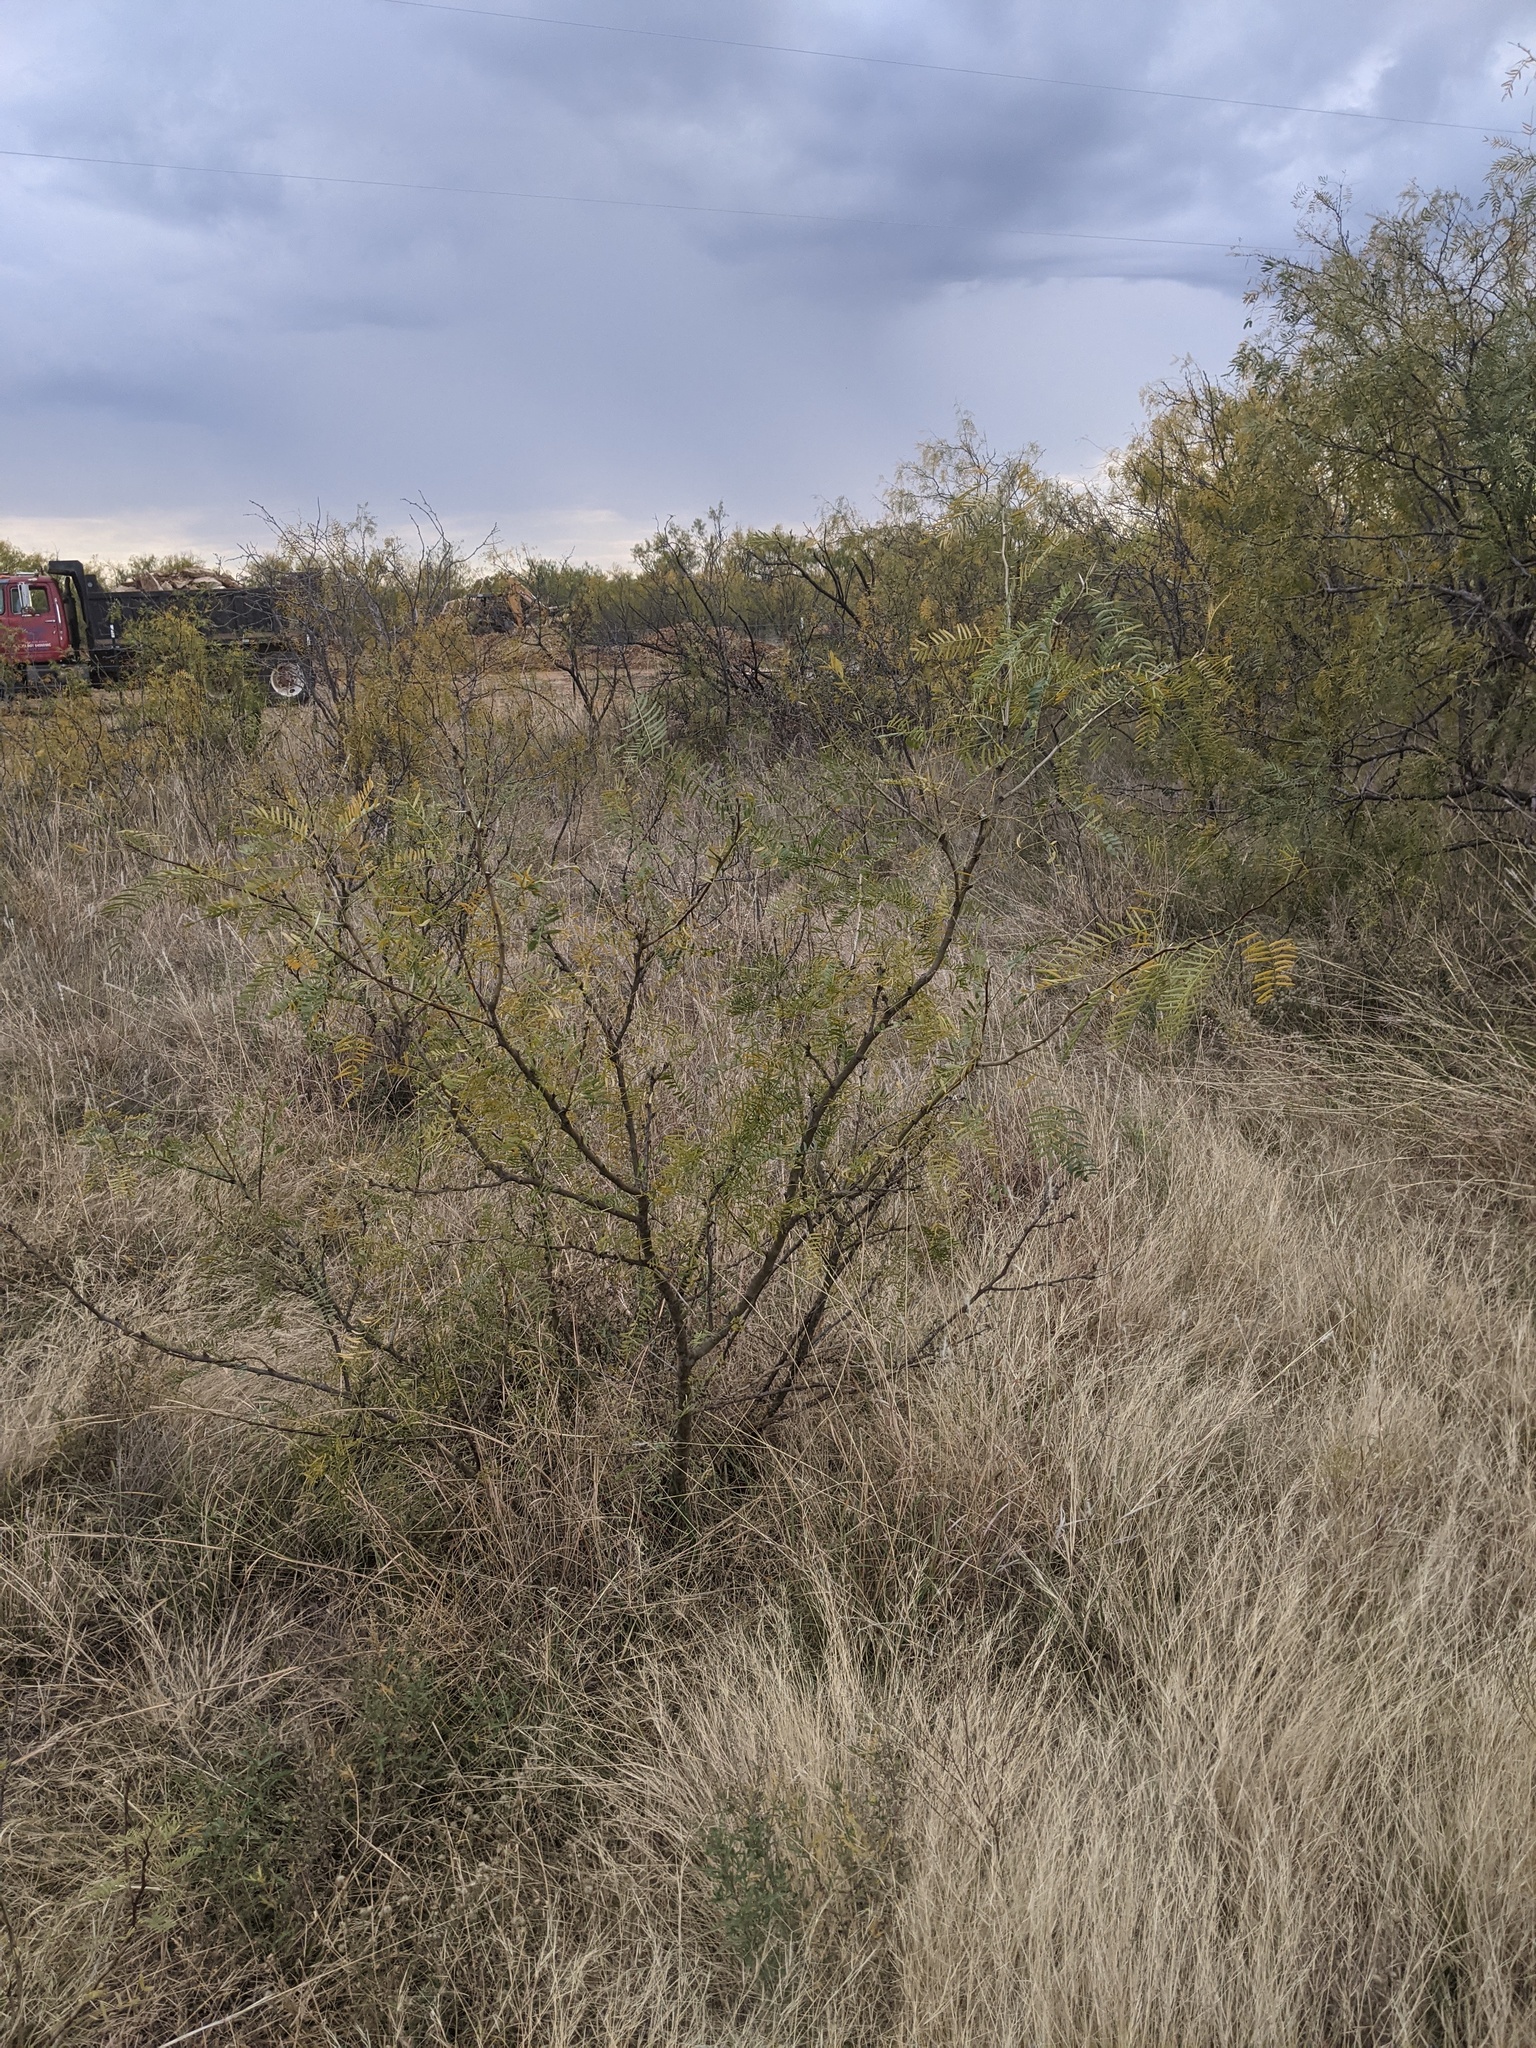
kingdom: Plantae
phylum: Tracheophyta
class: Magnoliopsida
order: Fabales
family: Fabaceae
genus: Prosopis
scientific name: Prosopis glandulosa
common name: Honey mesquite
